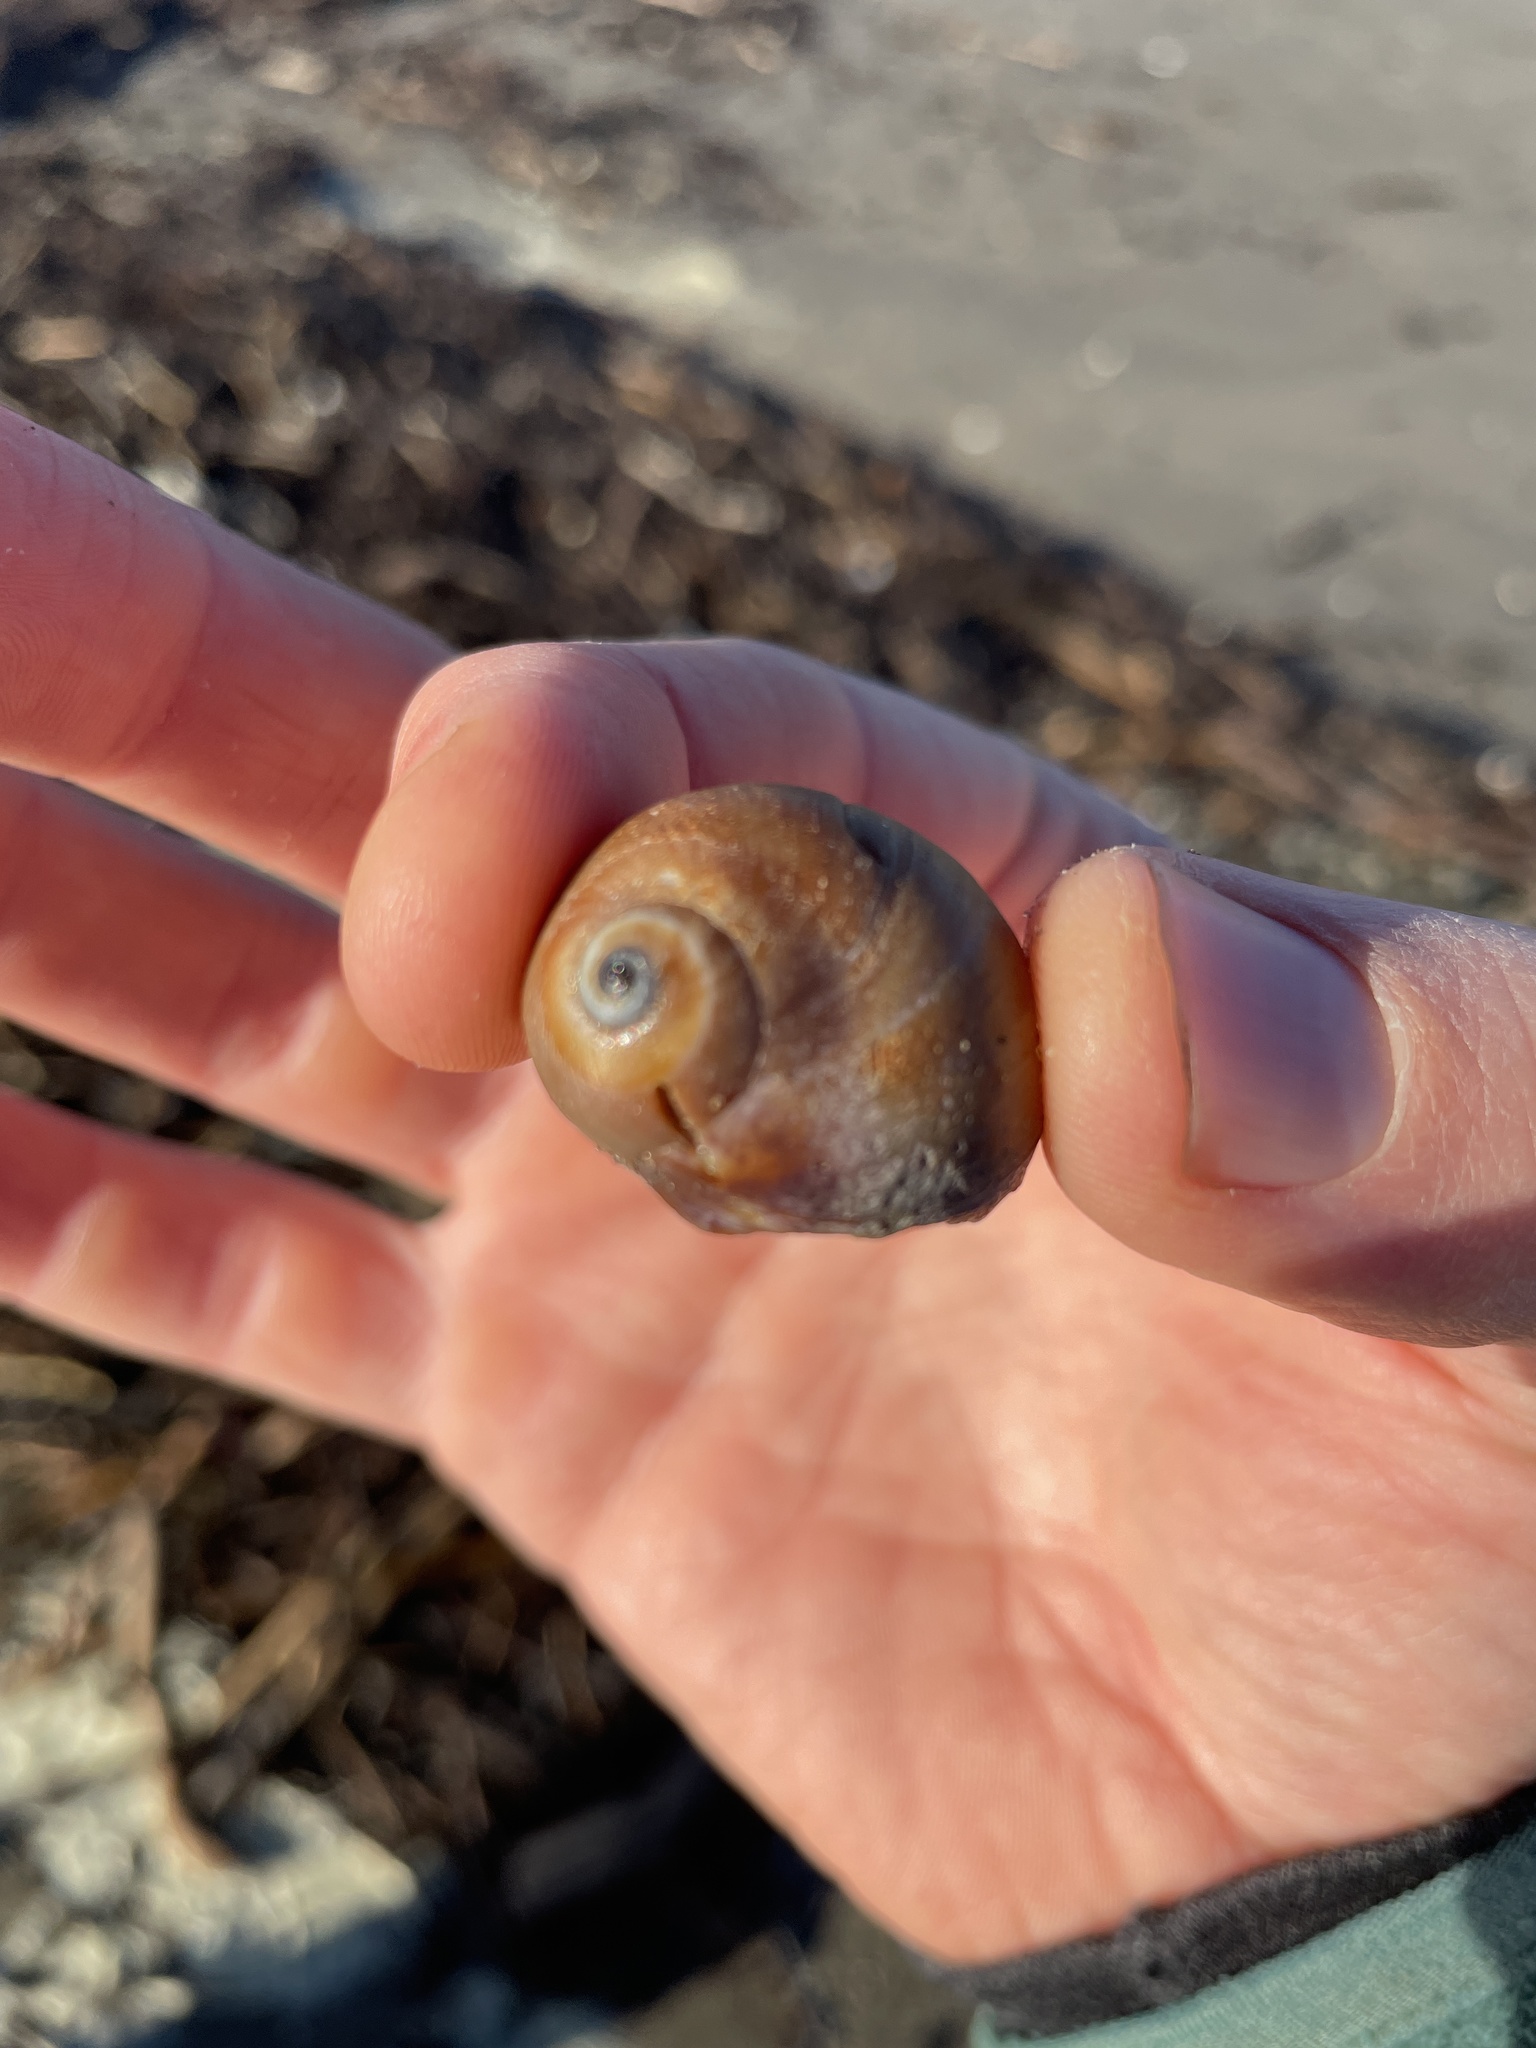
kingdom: Animalia
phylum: Mollusca
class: Gastropoda
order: Littorinimorpha
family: Naticidae
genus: Glossaulax
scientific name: Glossaulax reclusiana
